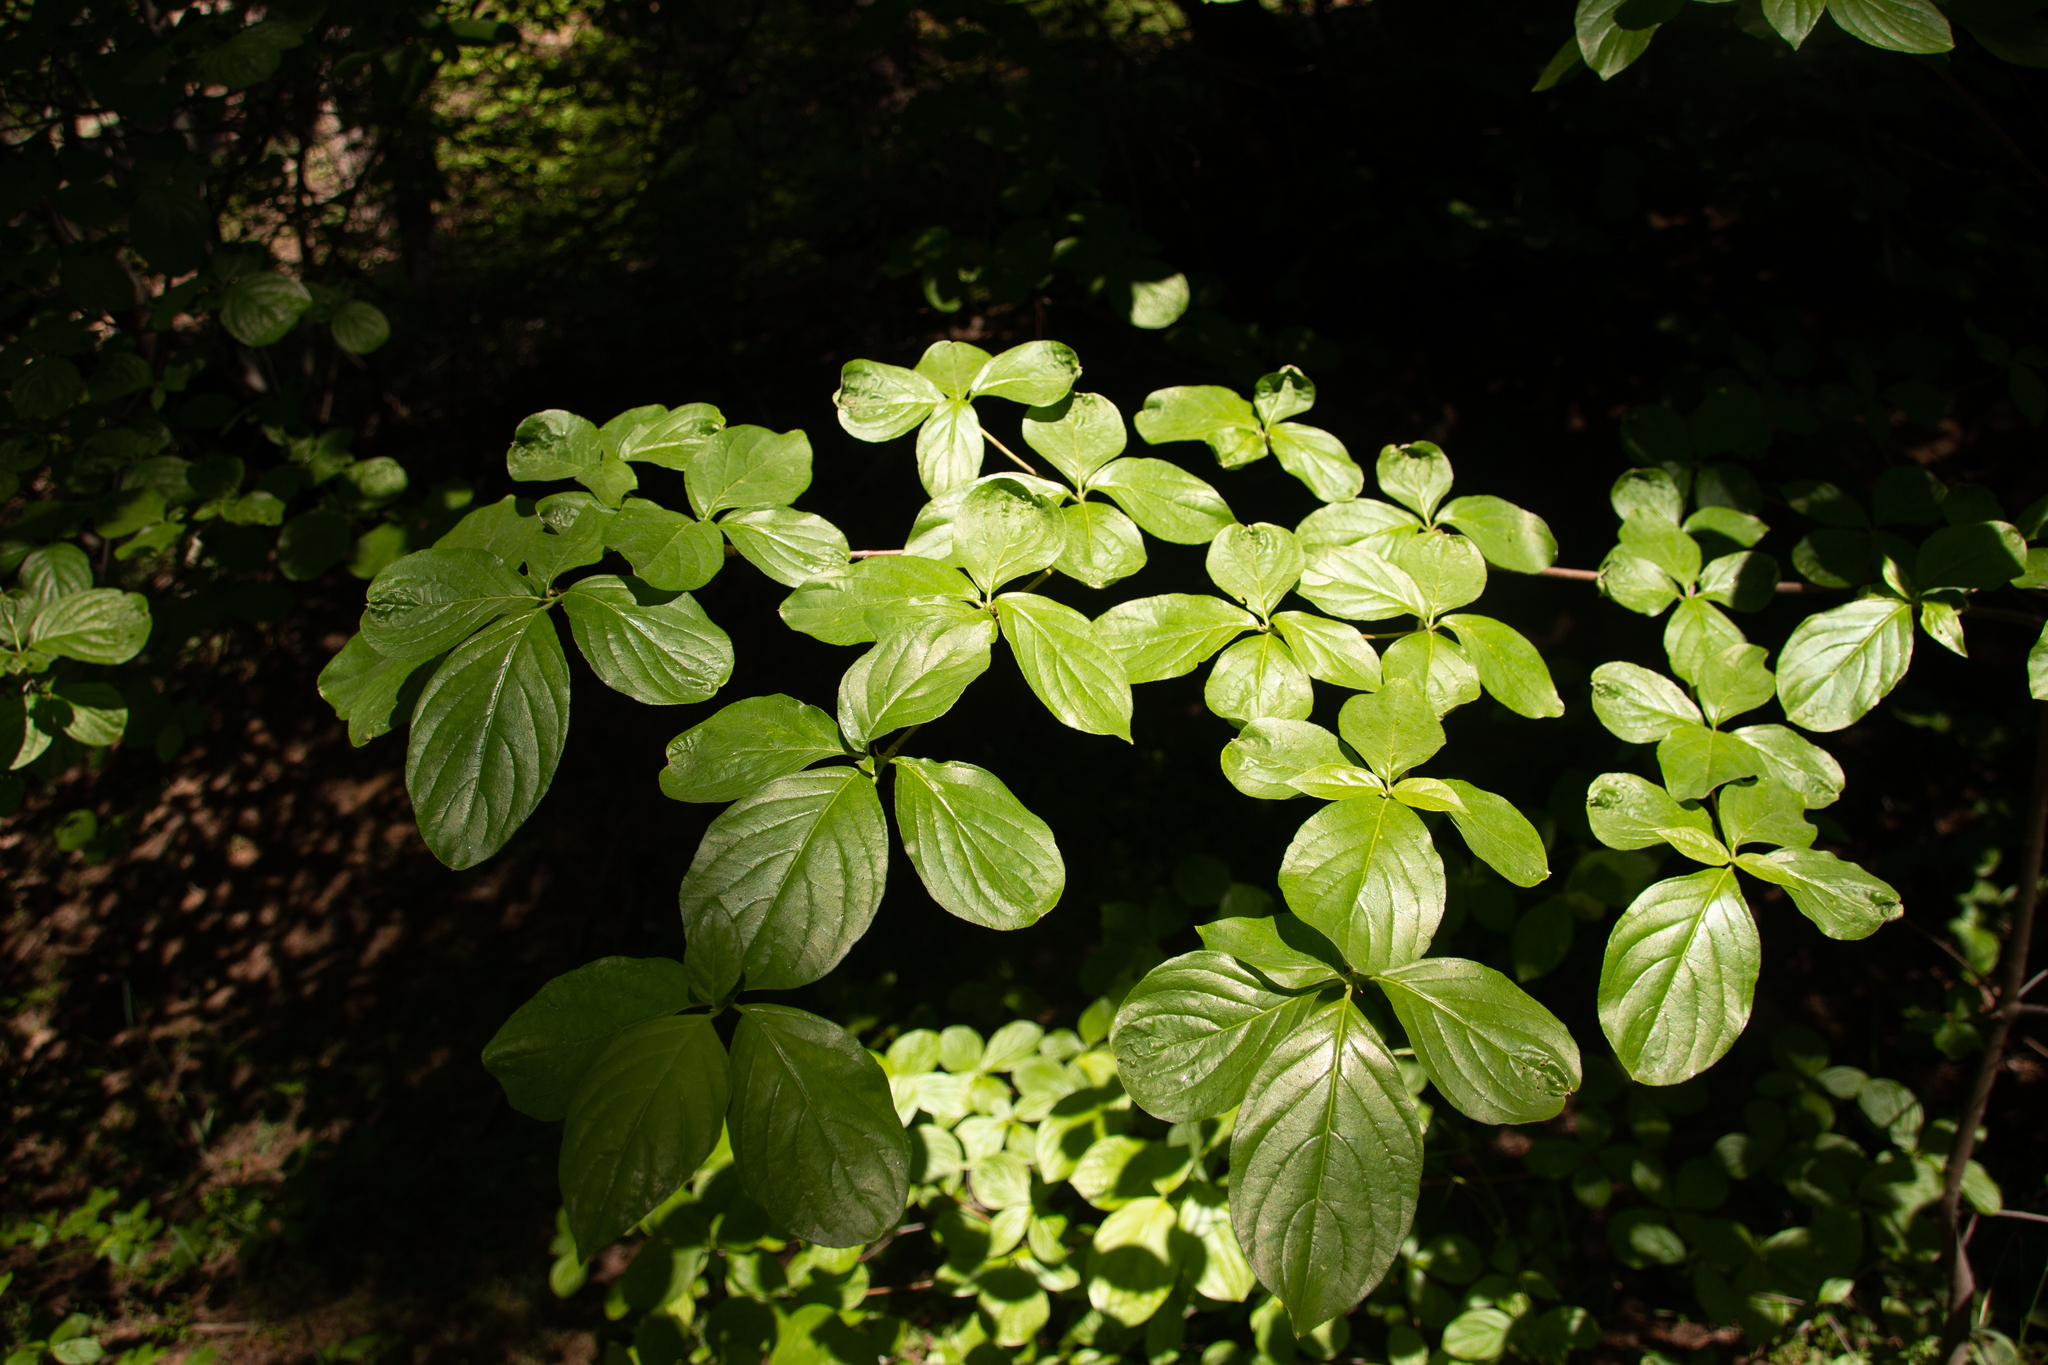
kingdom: Plantae
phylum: Tracheophyta
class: Magnoliopsida
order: Cornales
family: Cornaceae
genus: Cornus
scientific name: Cornus nuttallii
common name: Pacific dogwood
